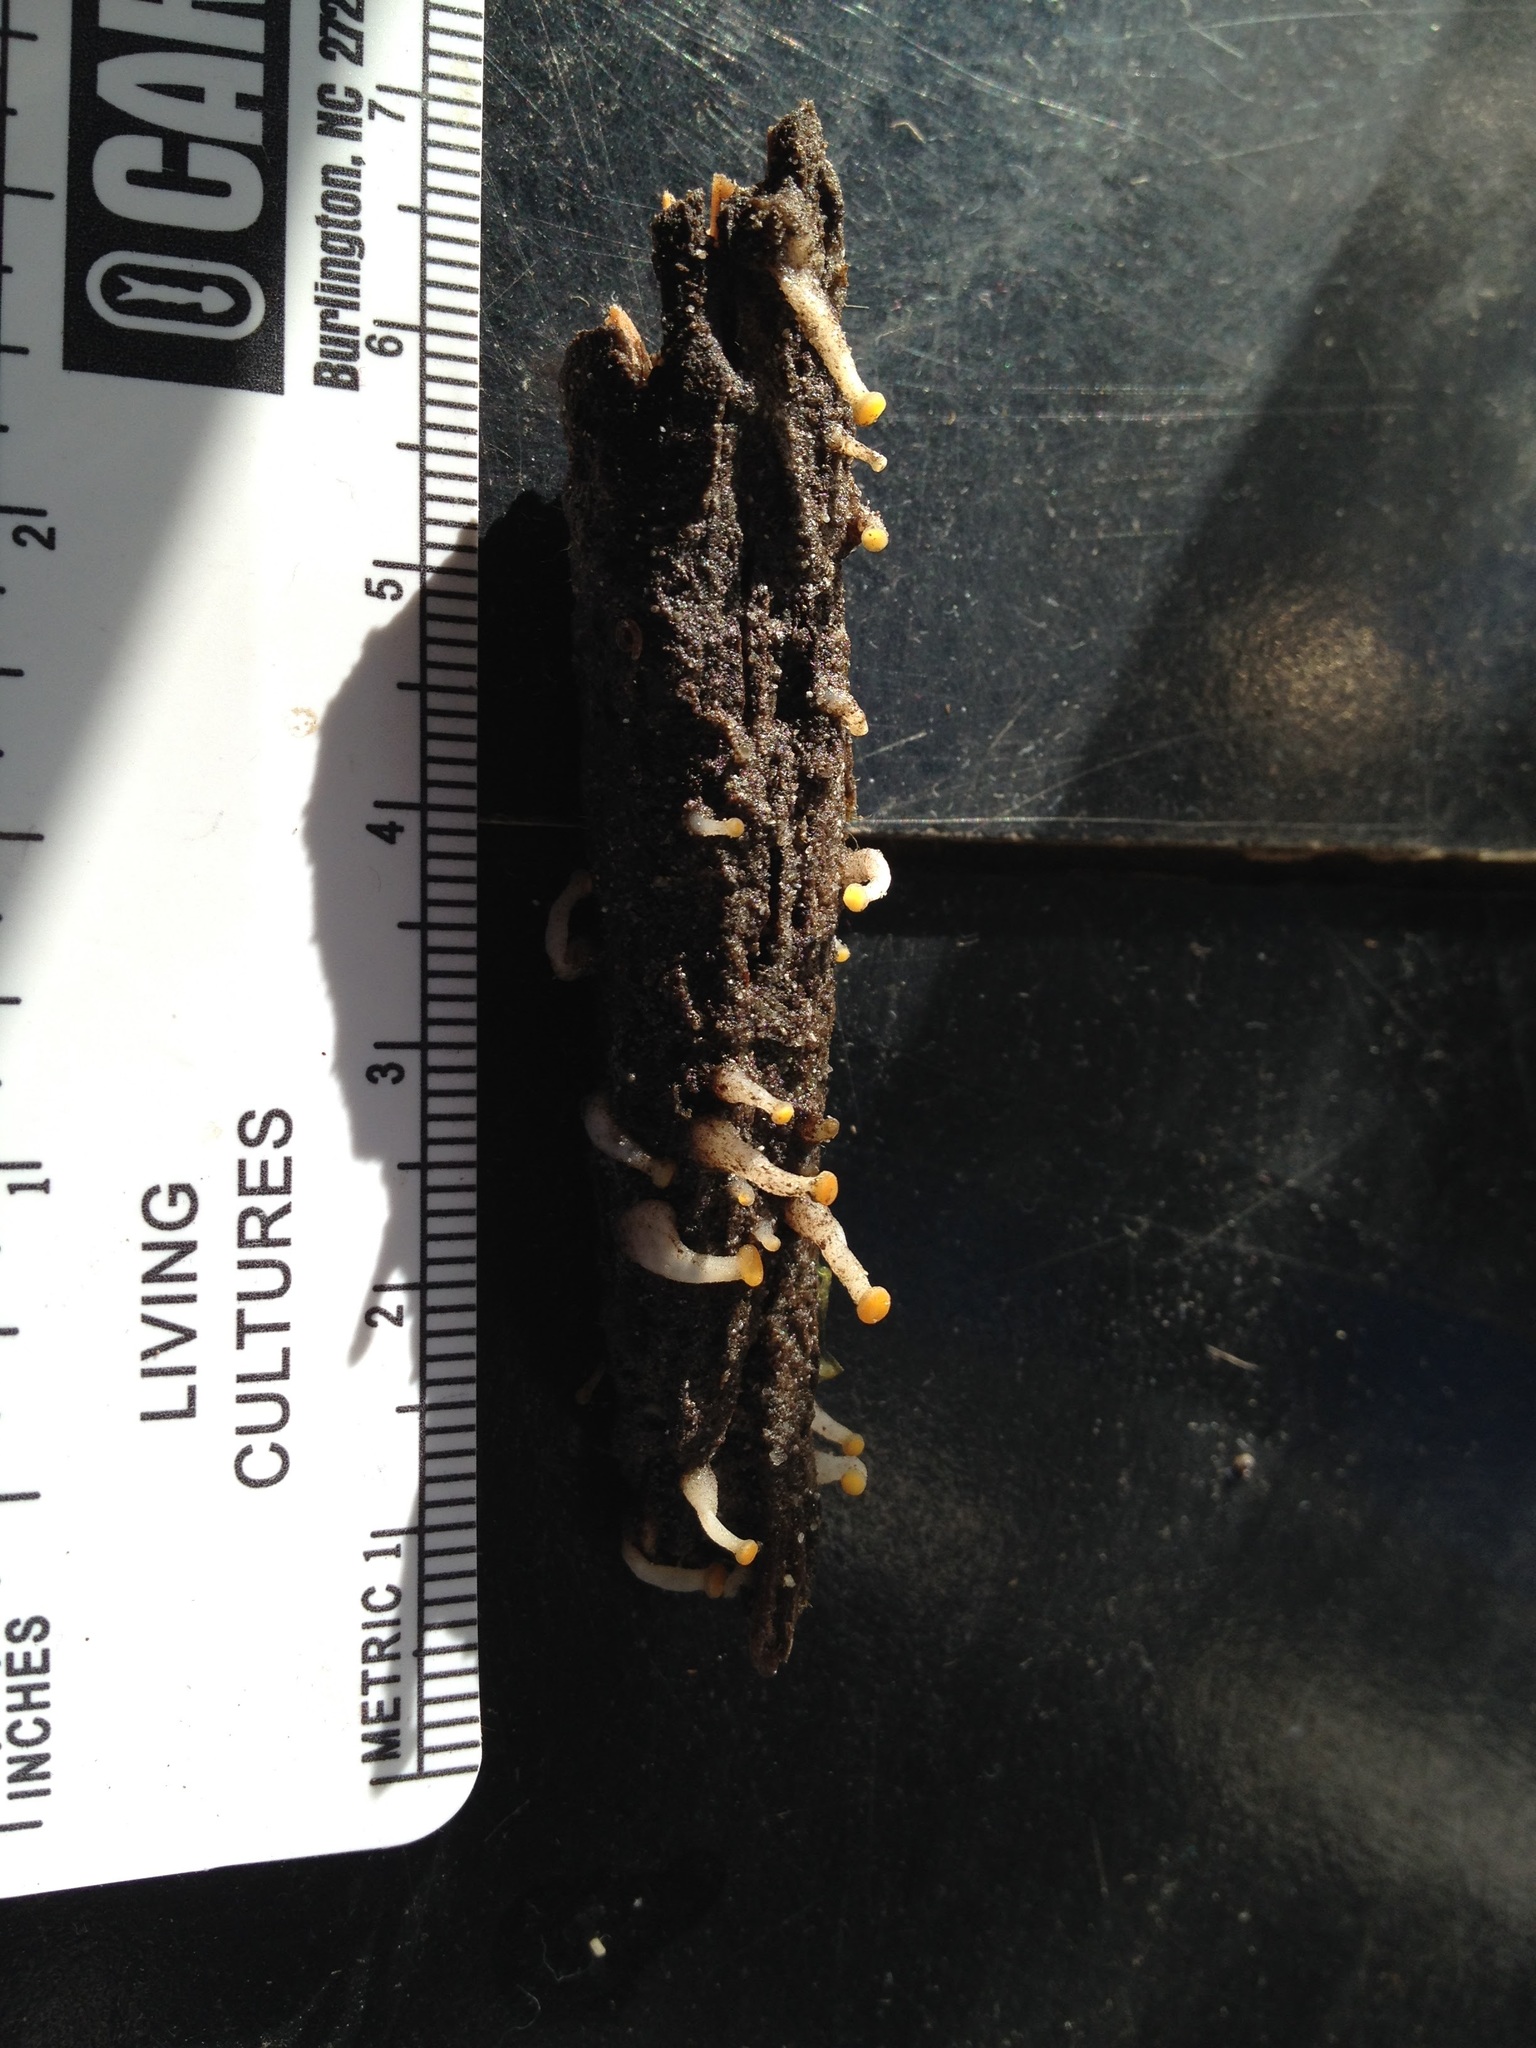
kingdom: Fungi
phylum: Ascomycota
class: Leotiomycetes
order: Helotiales
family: Vibrisseaceae
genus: Vibrissea
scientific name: Vibrissea truncorum
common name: Stream beacon
